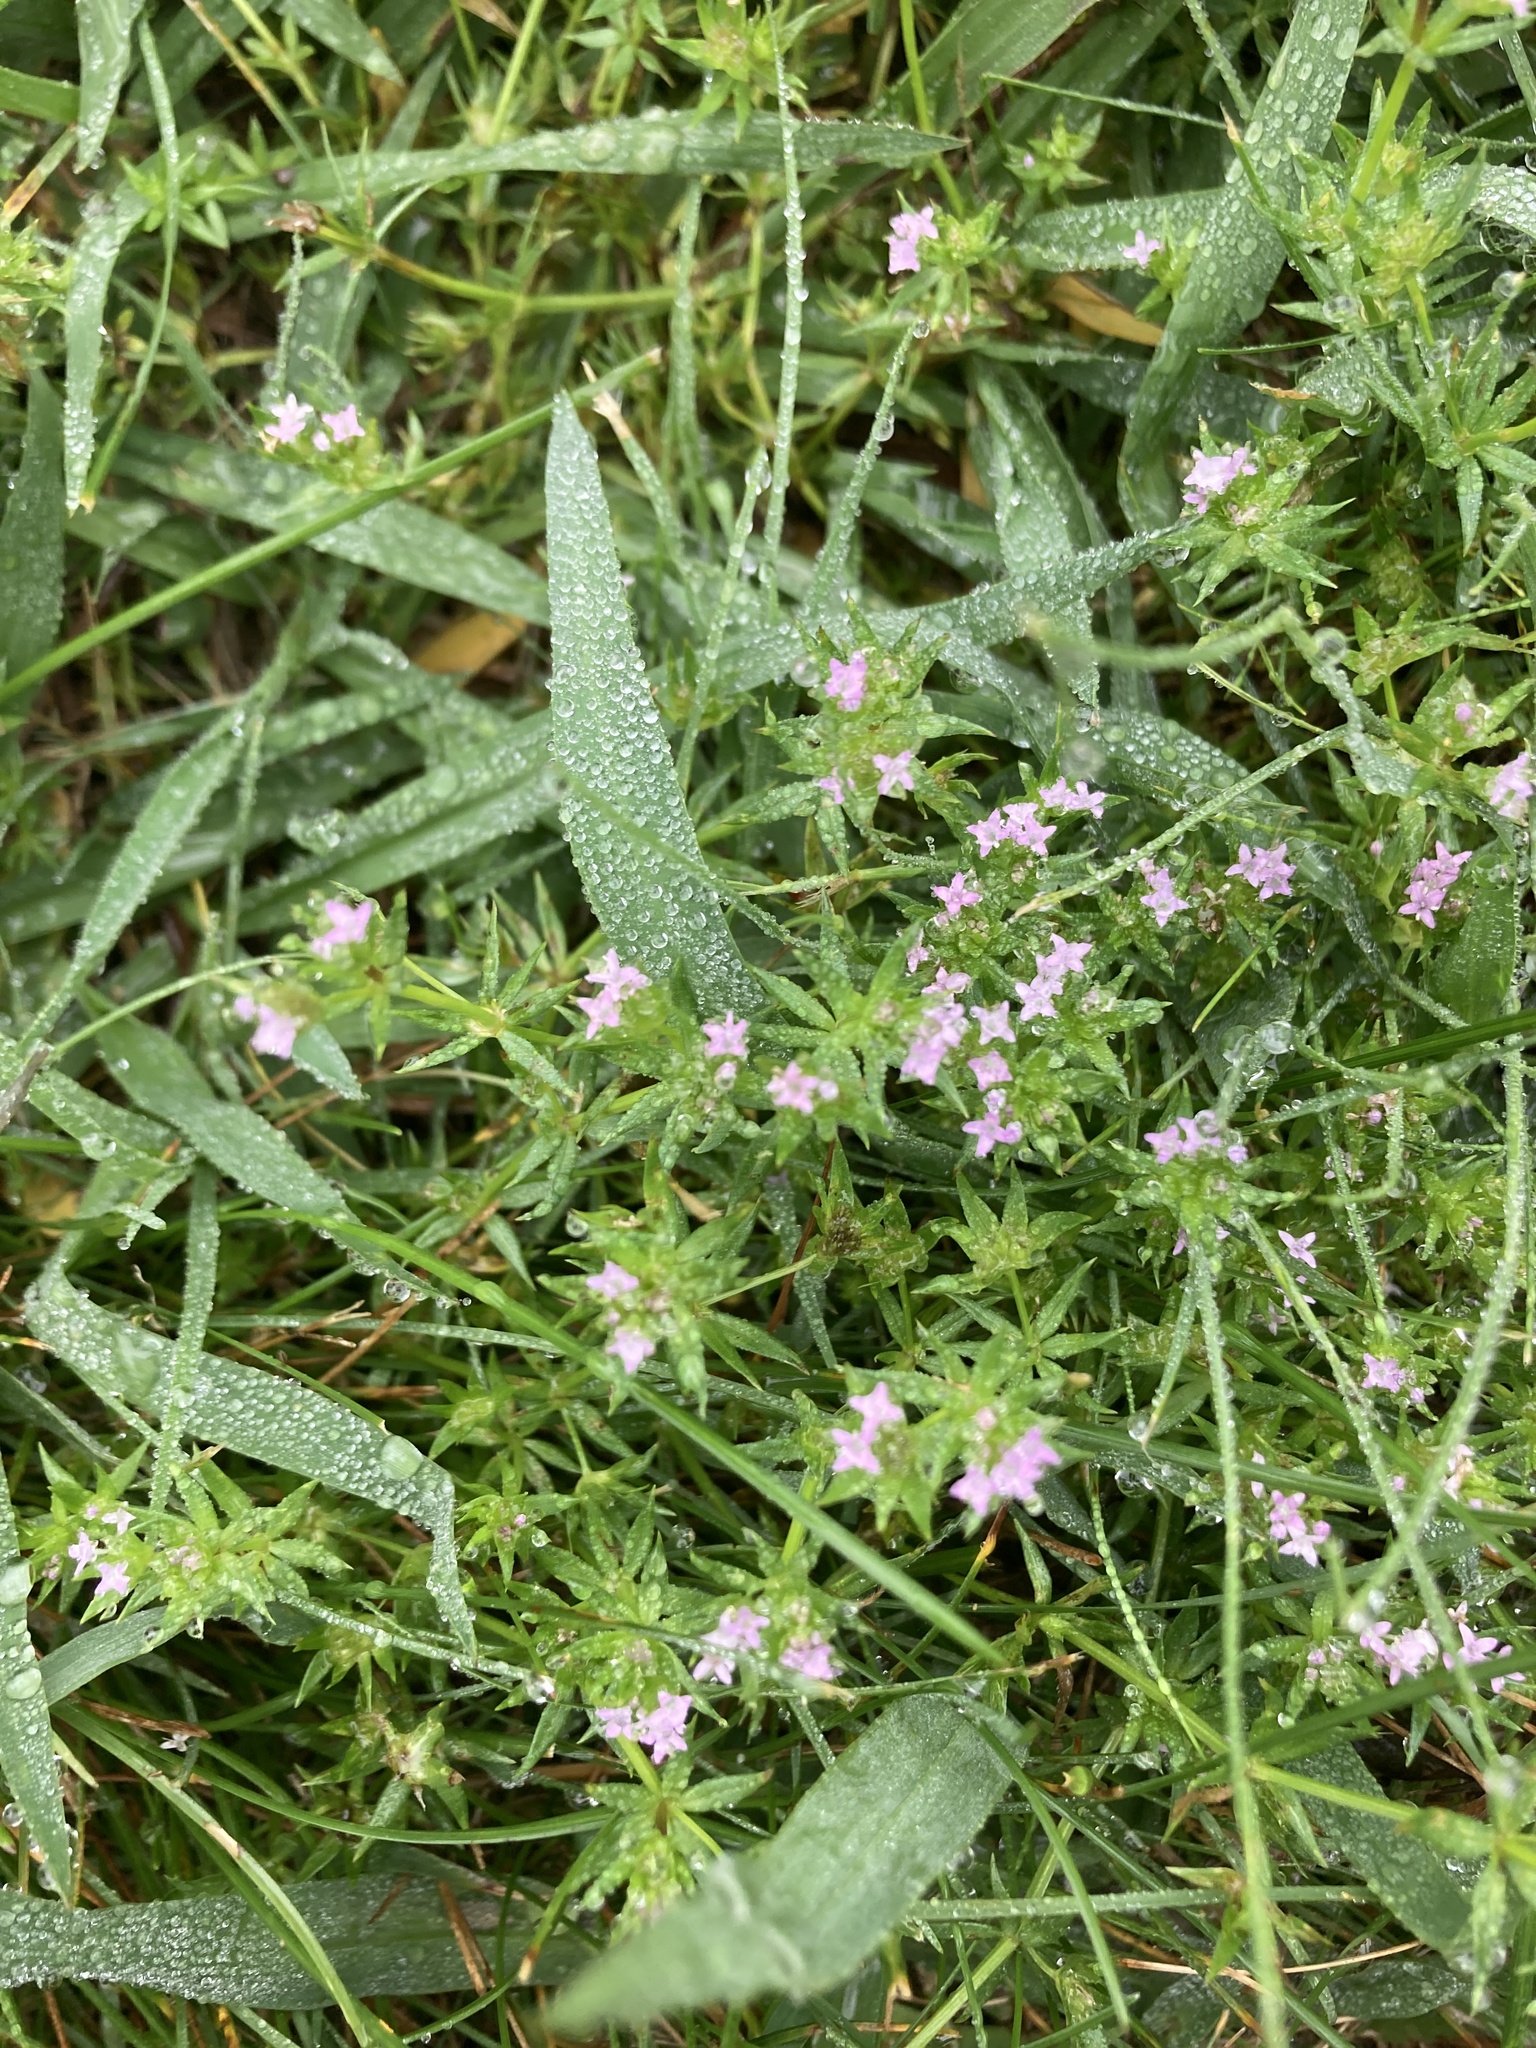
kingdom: Plantae
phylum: Tracheophyta
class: Magnoliopsida
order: Gentianales
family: Rubiaceae
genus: Sherardia
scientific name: Sherardia arvensis
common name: Field madder
